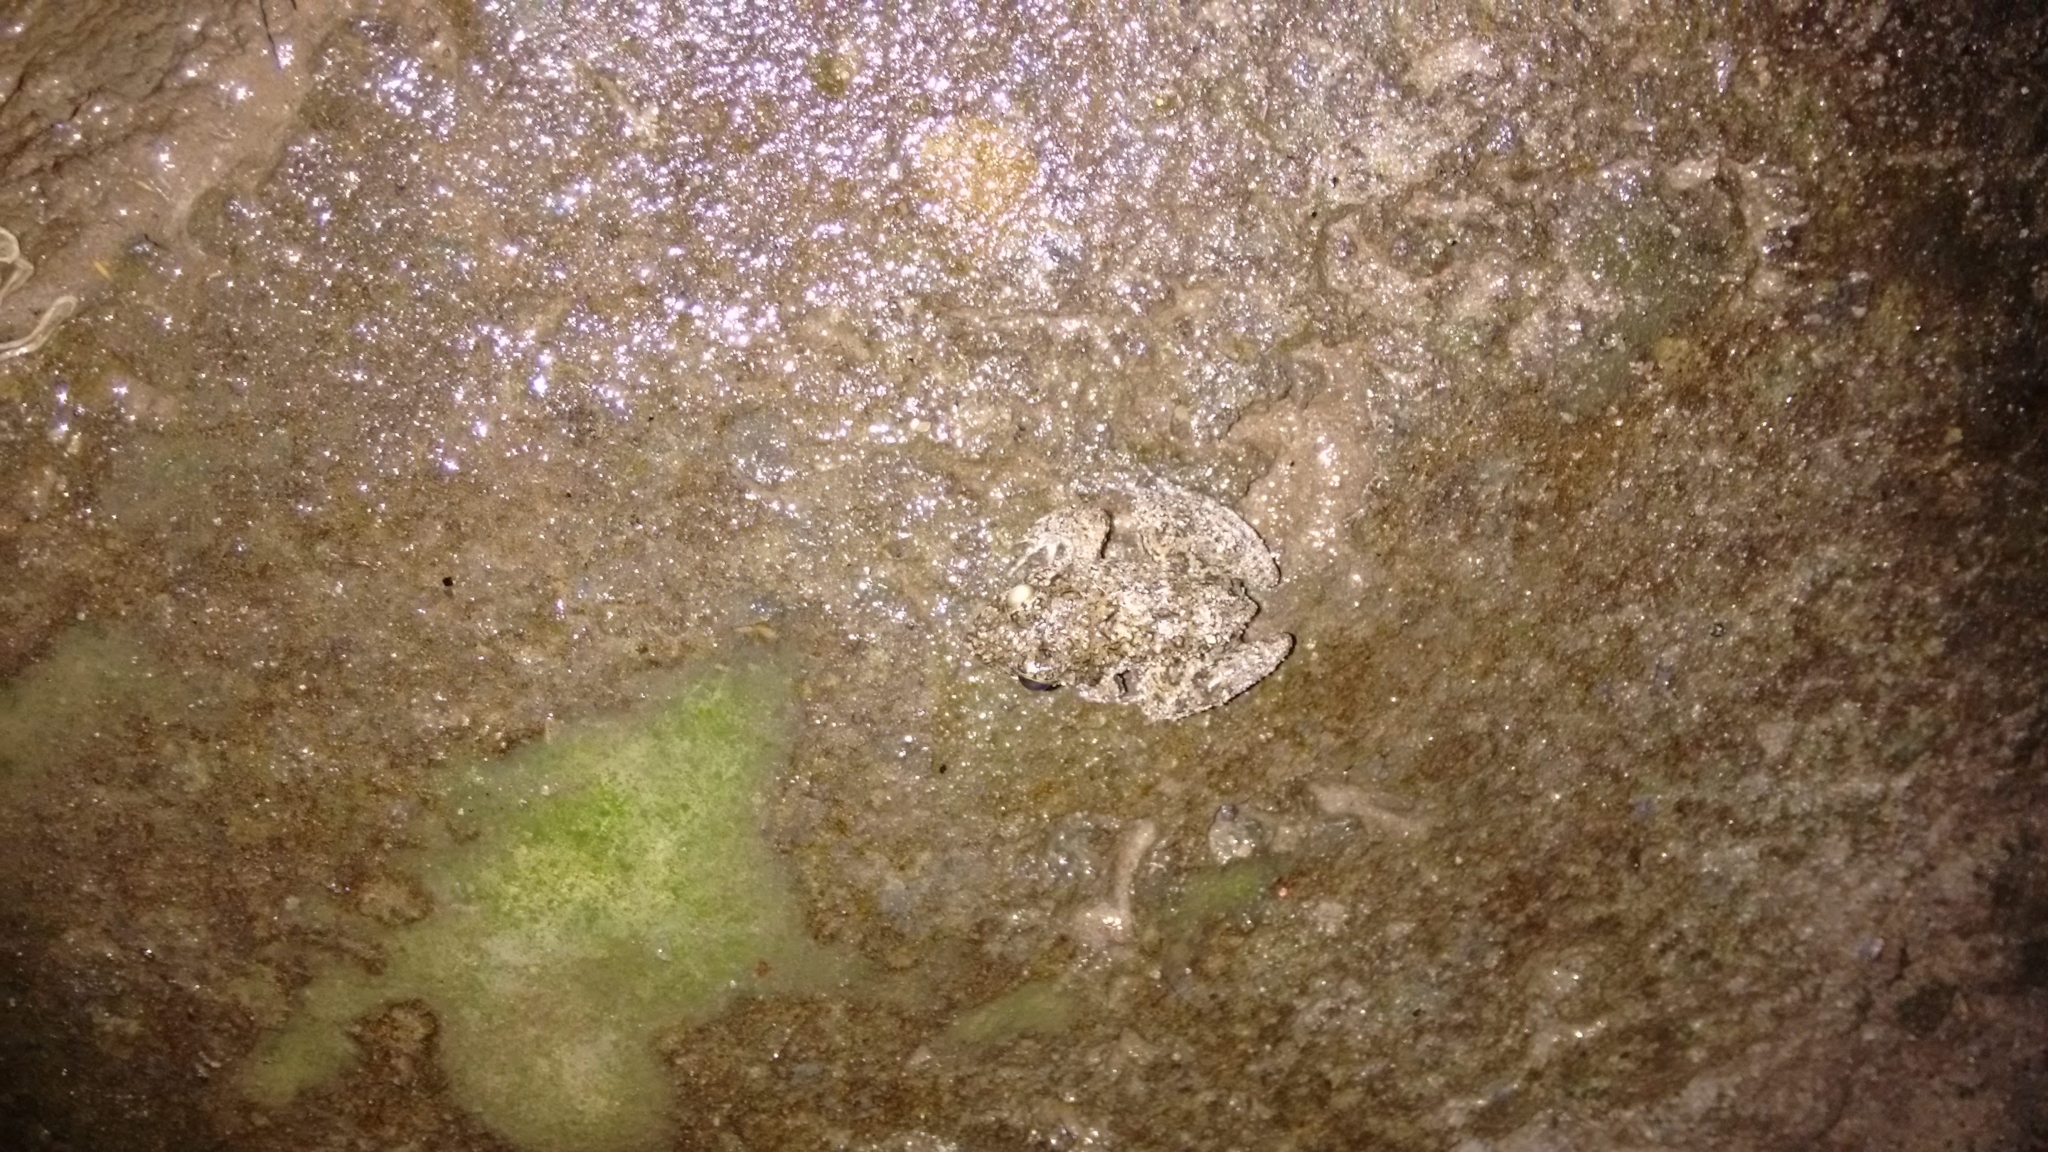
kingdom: Animalia
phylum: Chordata
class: Amphibia
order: Anura
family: Dicroglossidae
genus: Fejervarya
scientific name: Fejervarya limnocharis
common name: Asian grass frog/common pond frog/field frog/grass frog/indian rice frog
